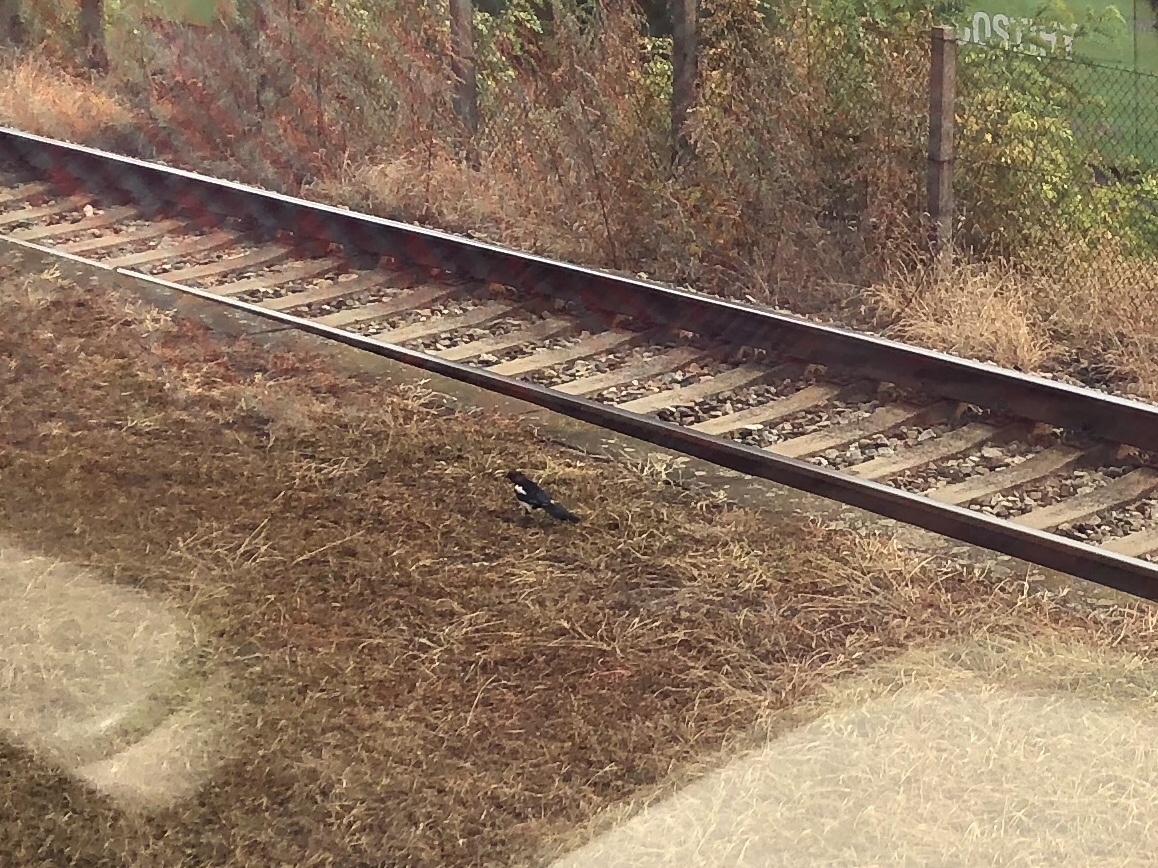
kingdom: Animalia
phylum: Chordata
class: Aves
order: Passeriformes
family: Corvidae
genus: Pica
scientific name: Pica pica
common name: Eurasian magpie
